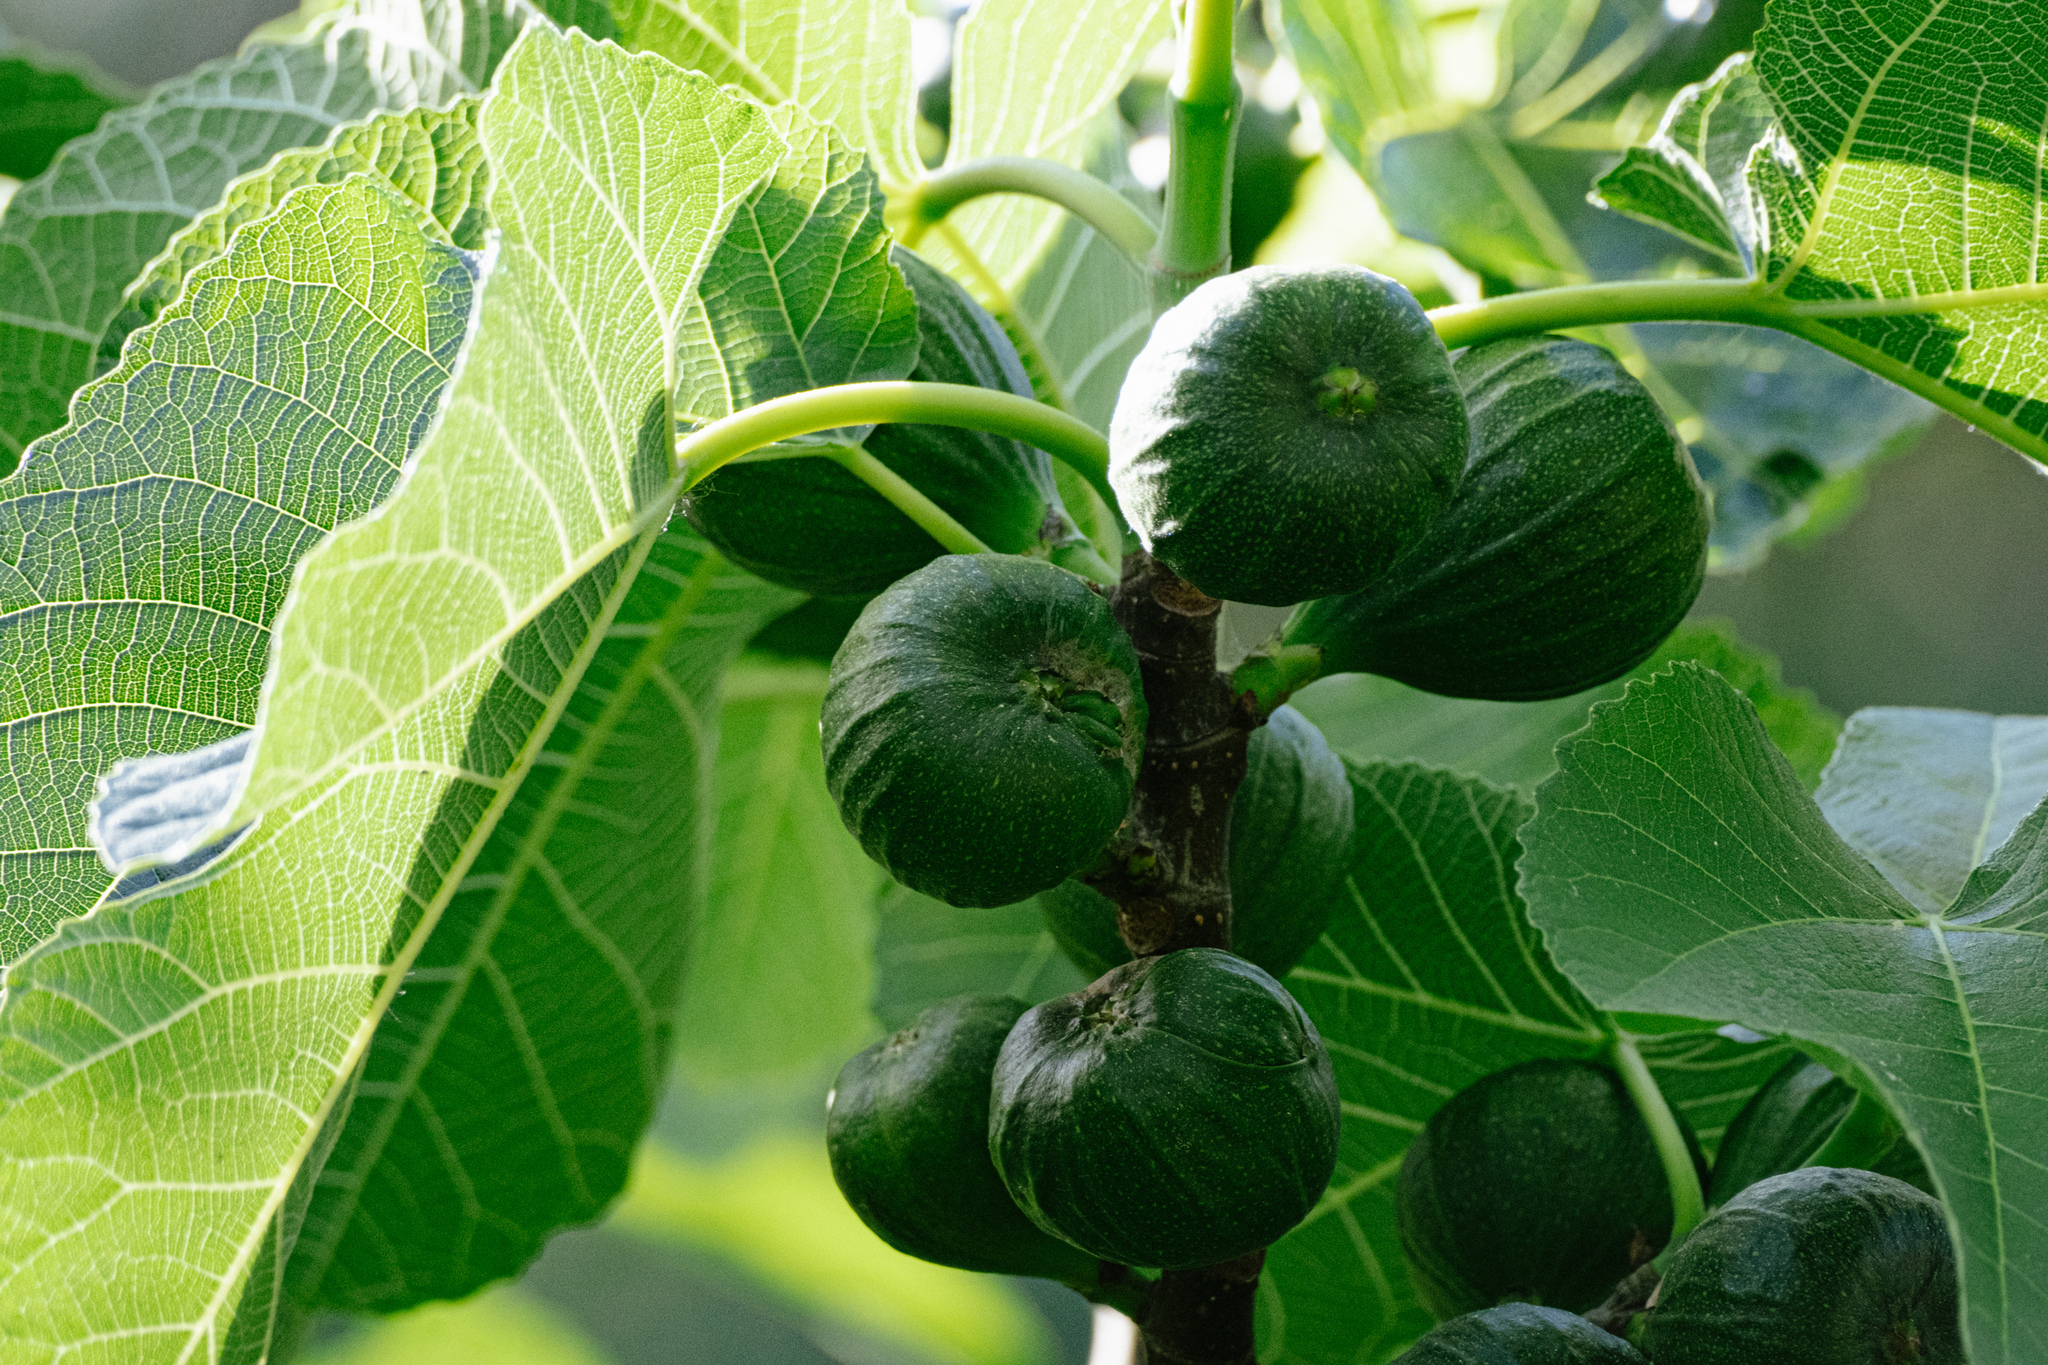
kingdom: Plantae
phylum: Tracheophyta
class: Magnoliopsida
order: Rosales
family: Moraceae
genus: Ficus
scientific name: Ficus carica
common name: Fig
